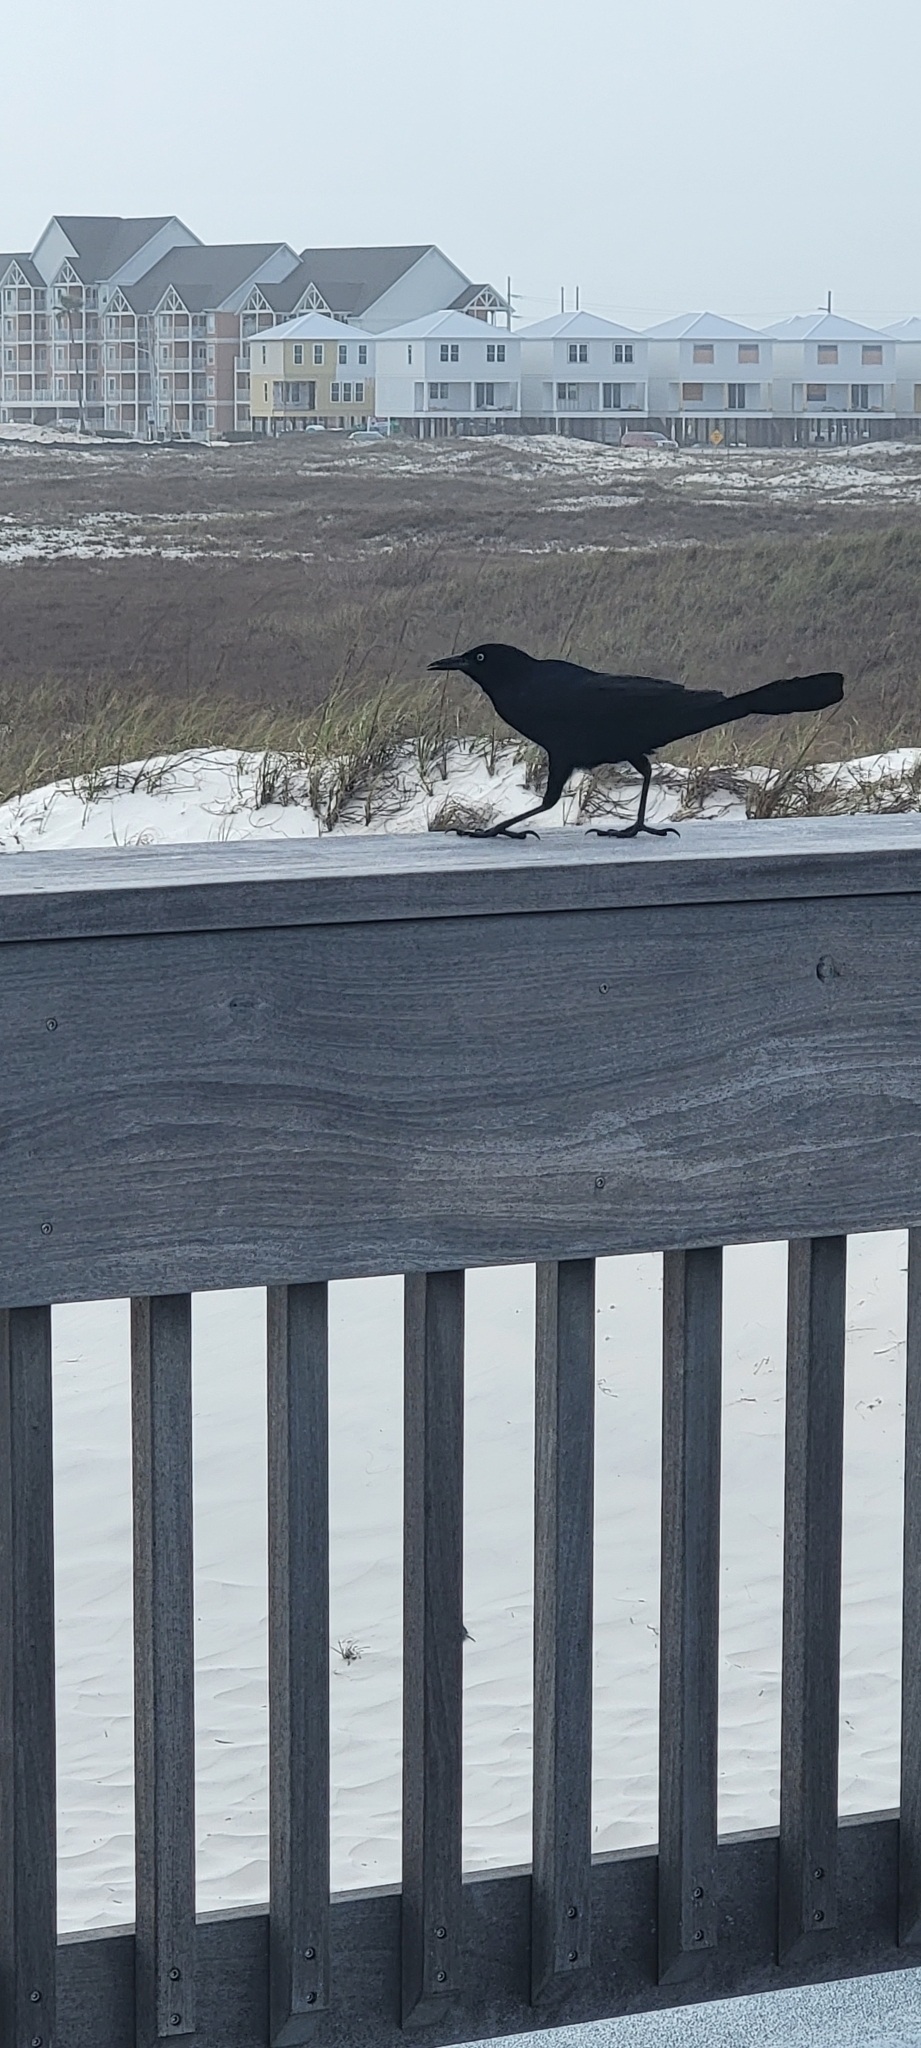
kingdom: Animalia
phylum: Chordata
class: Aves
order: Passeriformes
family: Icteridae
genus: Quiscalus
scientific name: Quiscalus major
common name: Boat-tailed grackle
